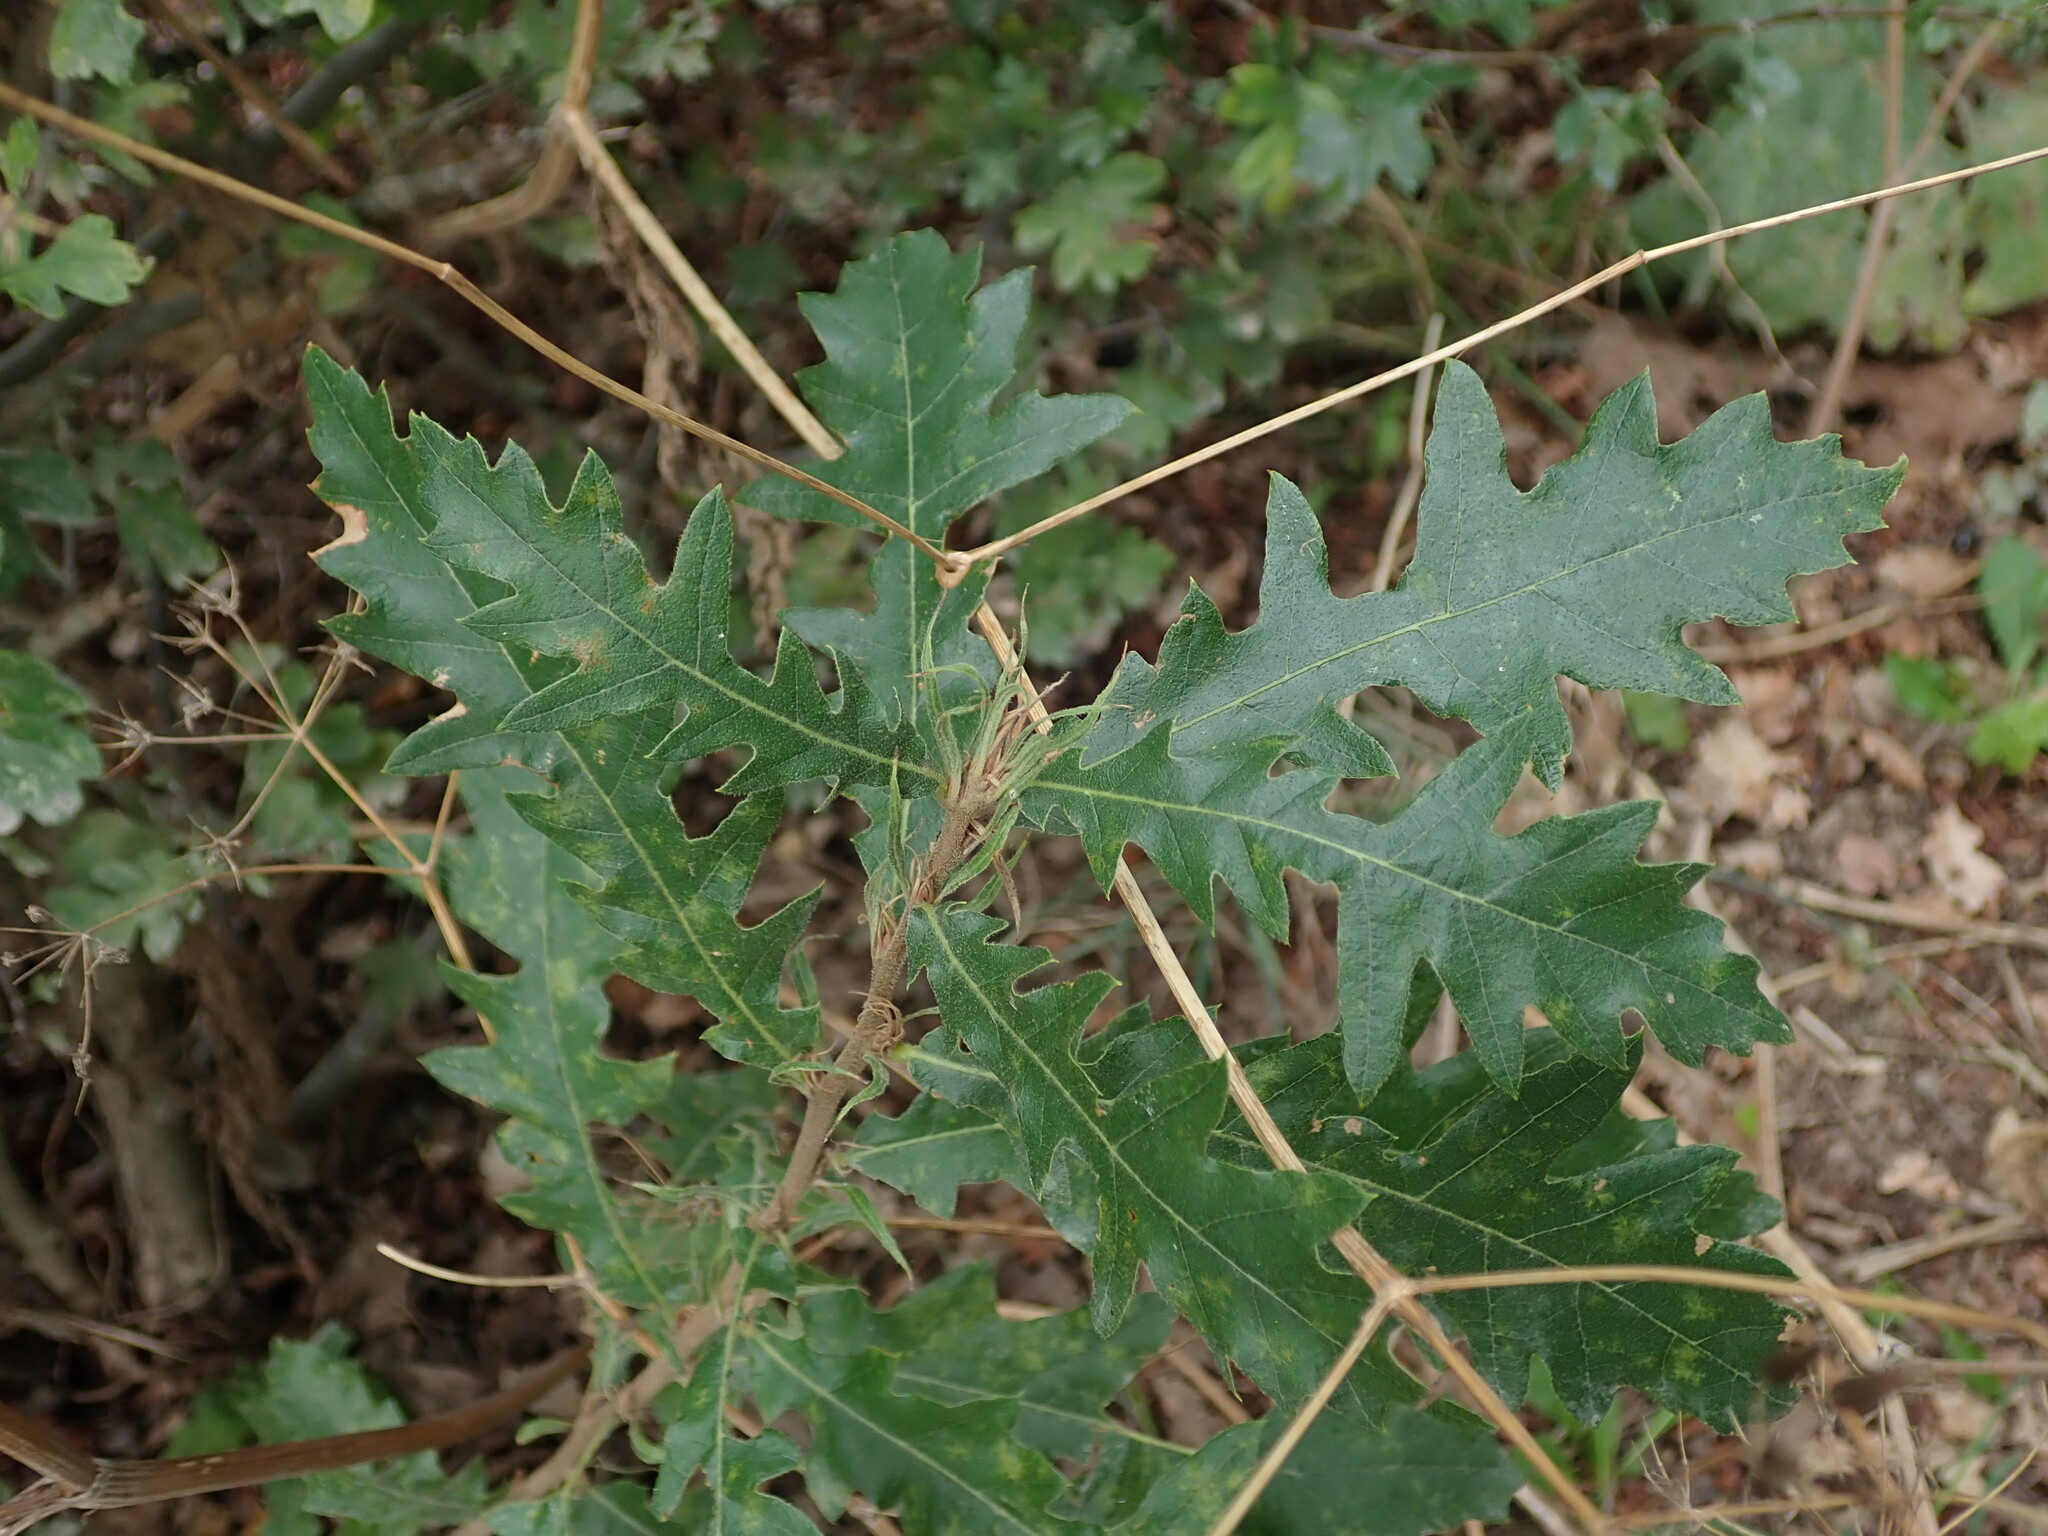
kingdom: Plantae
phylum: Tracheophyta
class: Magnoliopsida
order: Fagales
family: Fagaceae
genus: Quercus
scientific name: Quercus cerris
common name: Turkey oak
